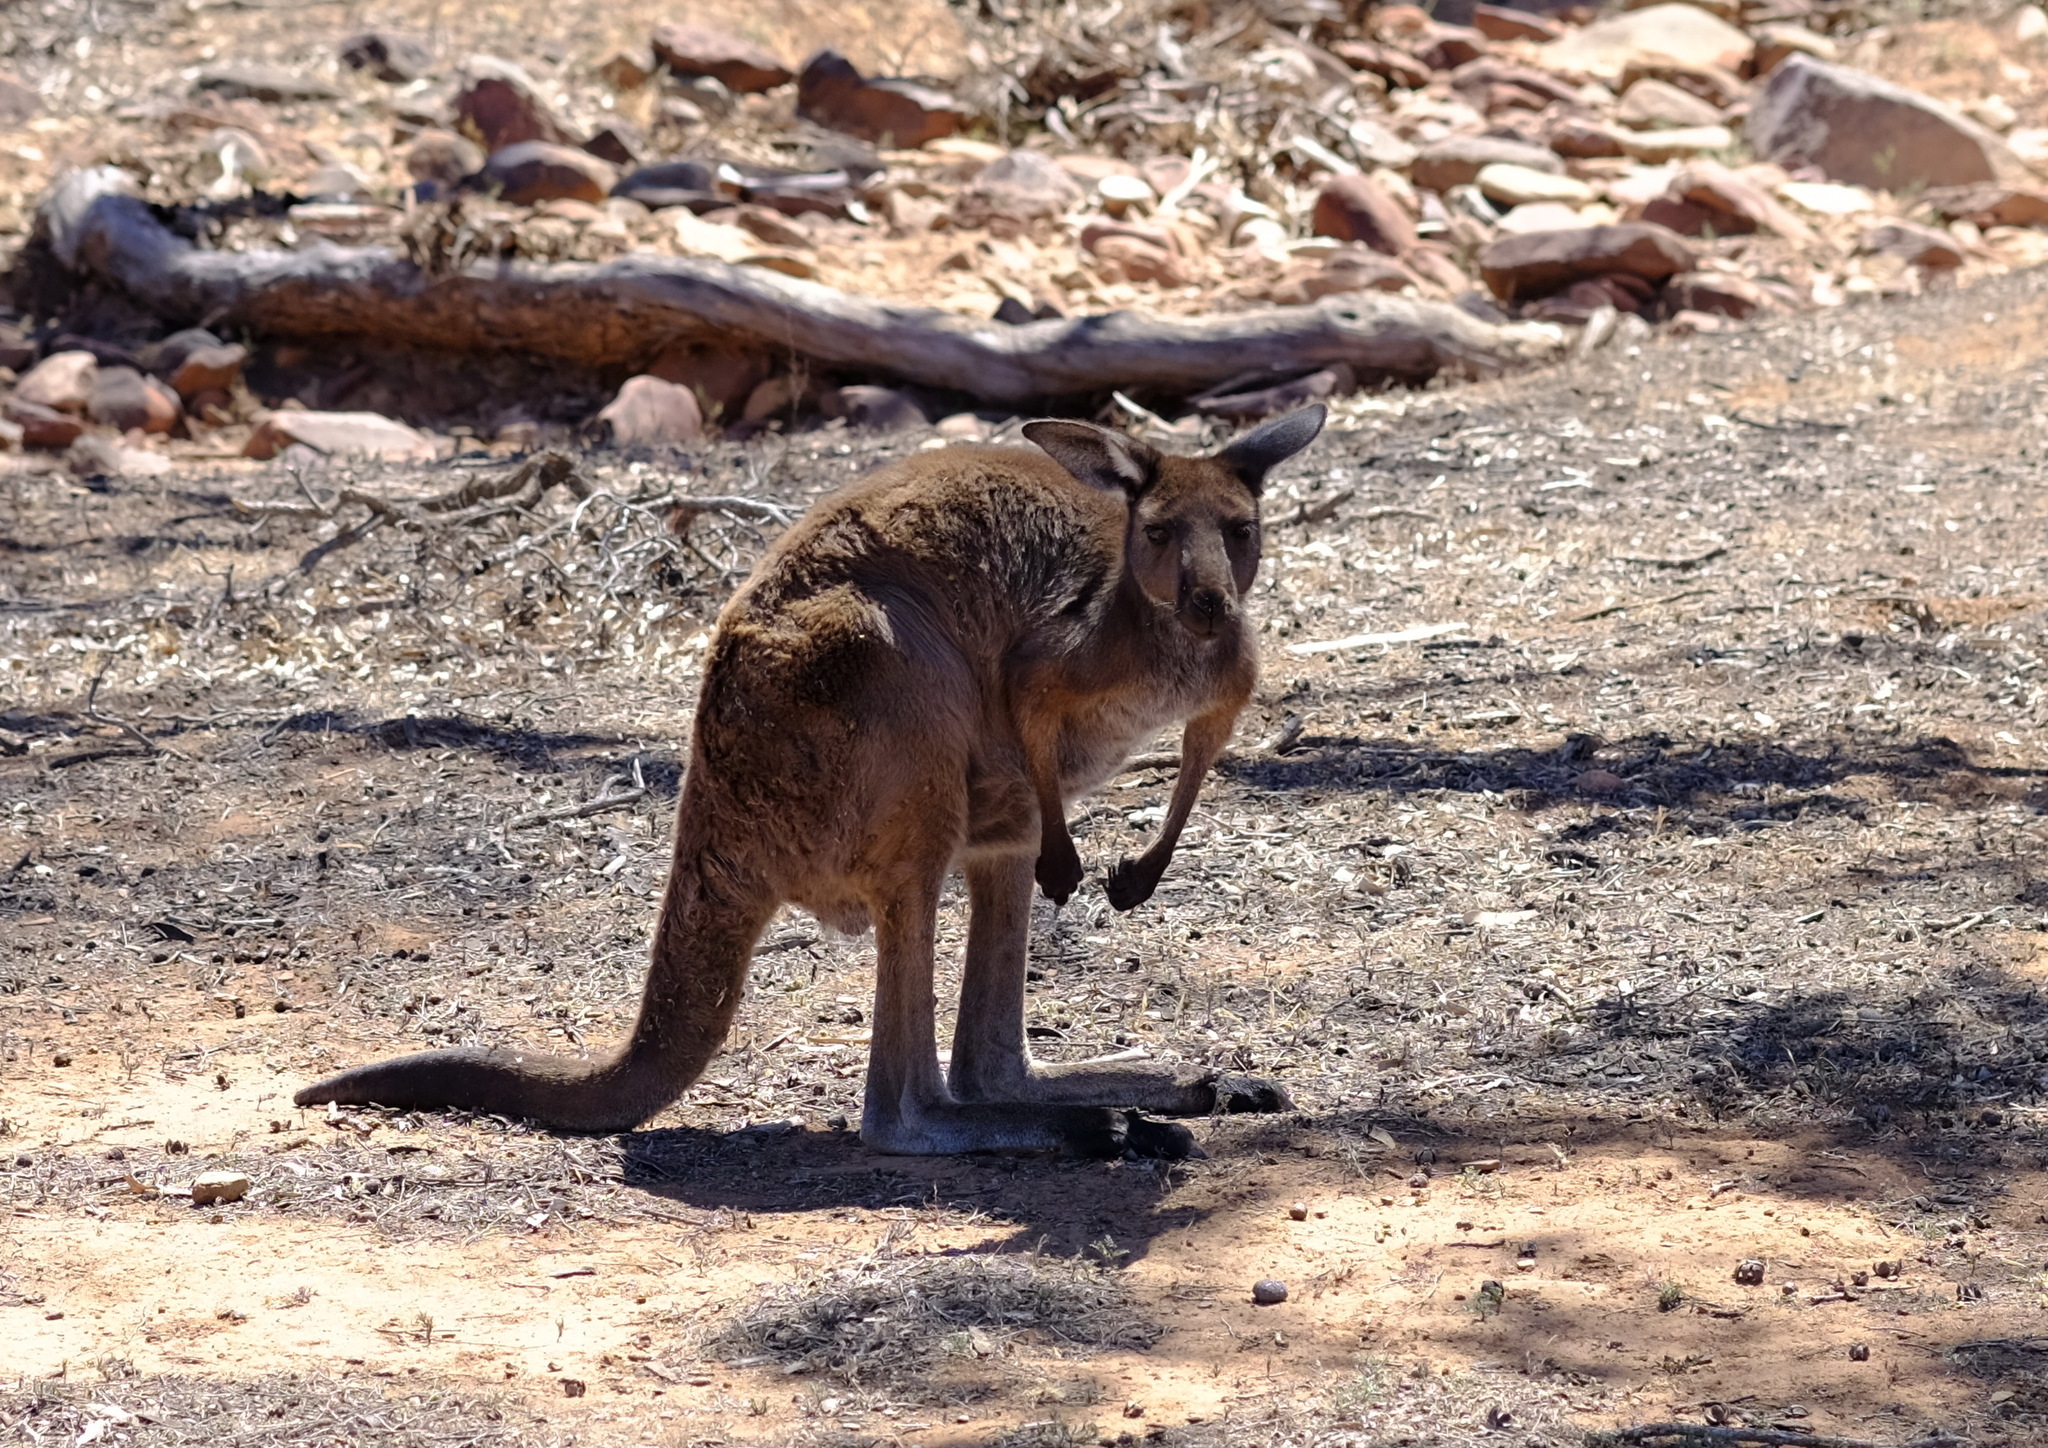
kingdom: Animalia
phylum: Chordata
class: Mammalia
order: Diprotodontia
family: Macropodidae
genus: Macropus
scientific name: Macropus fuliginosus
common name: Western grey kangaroo
